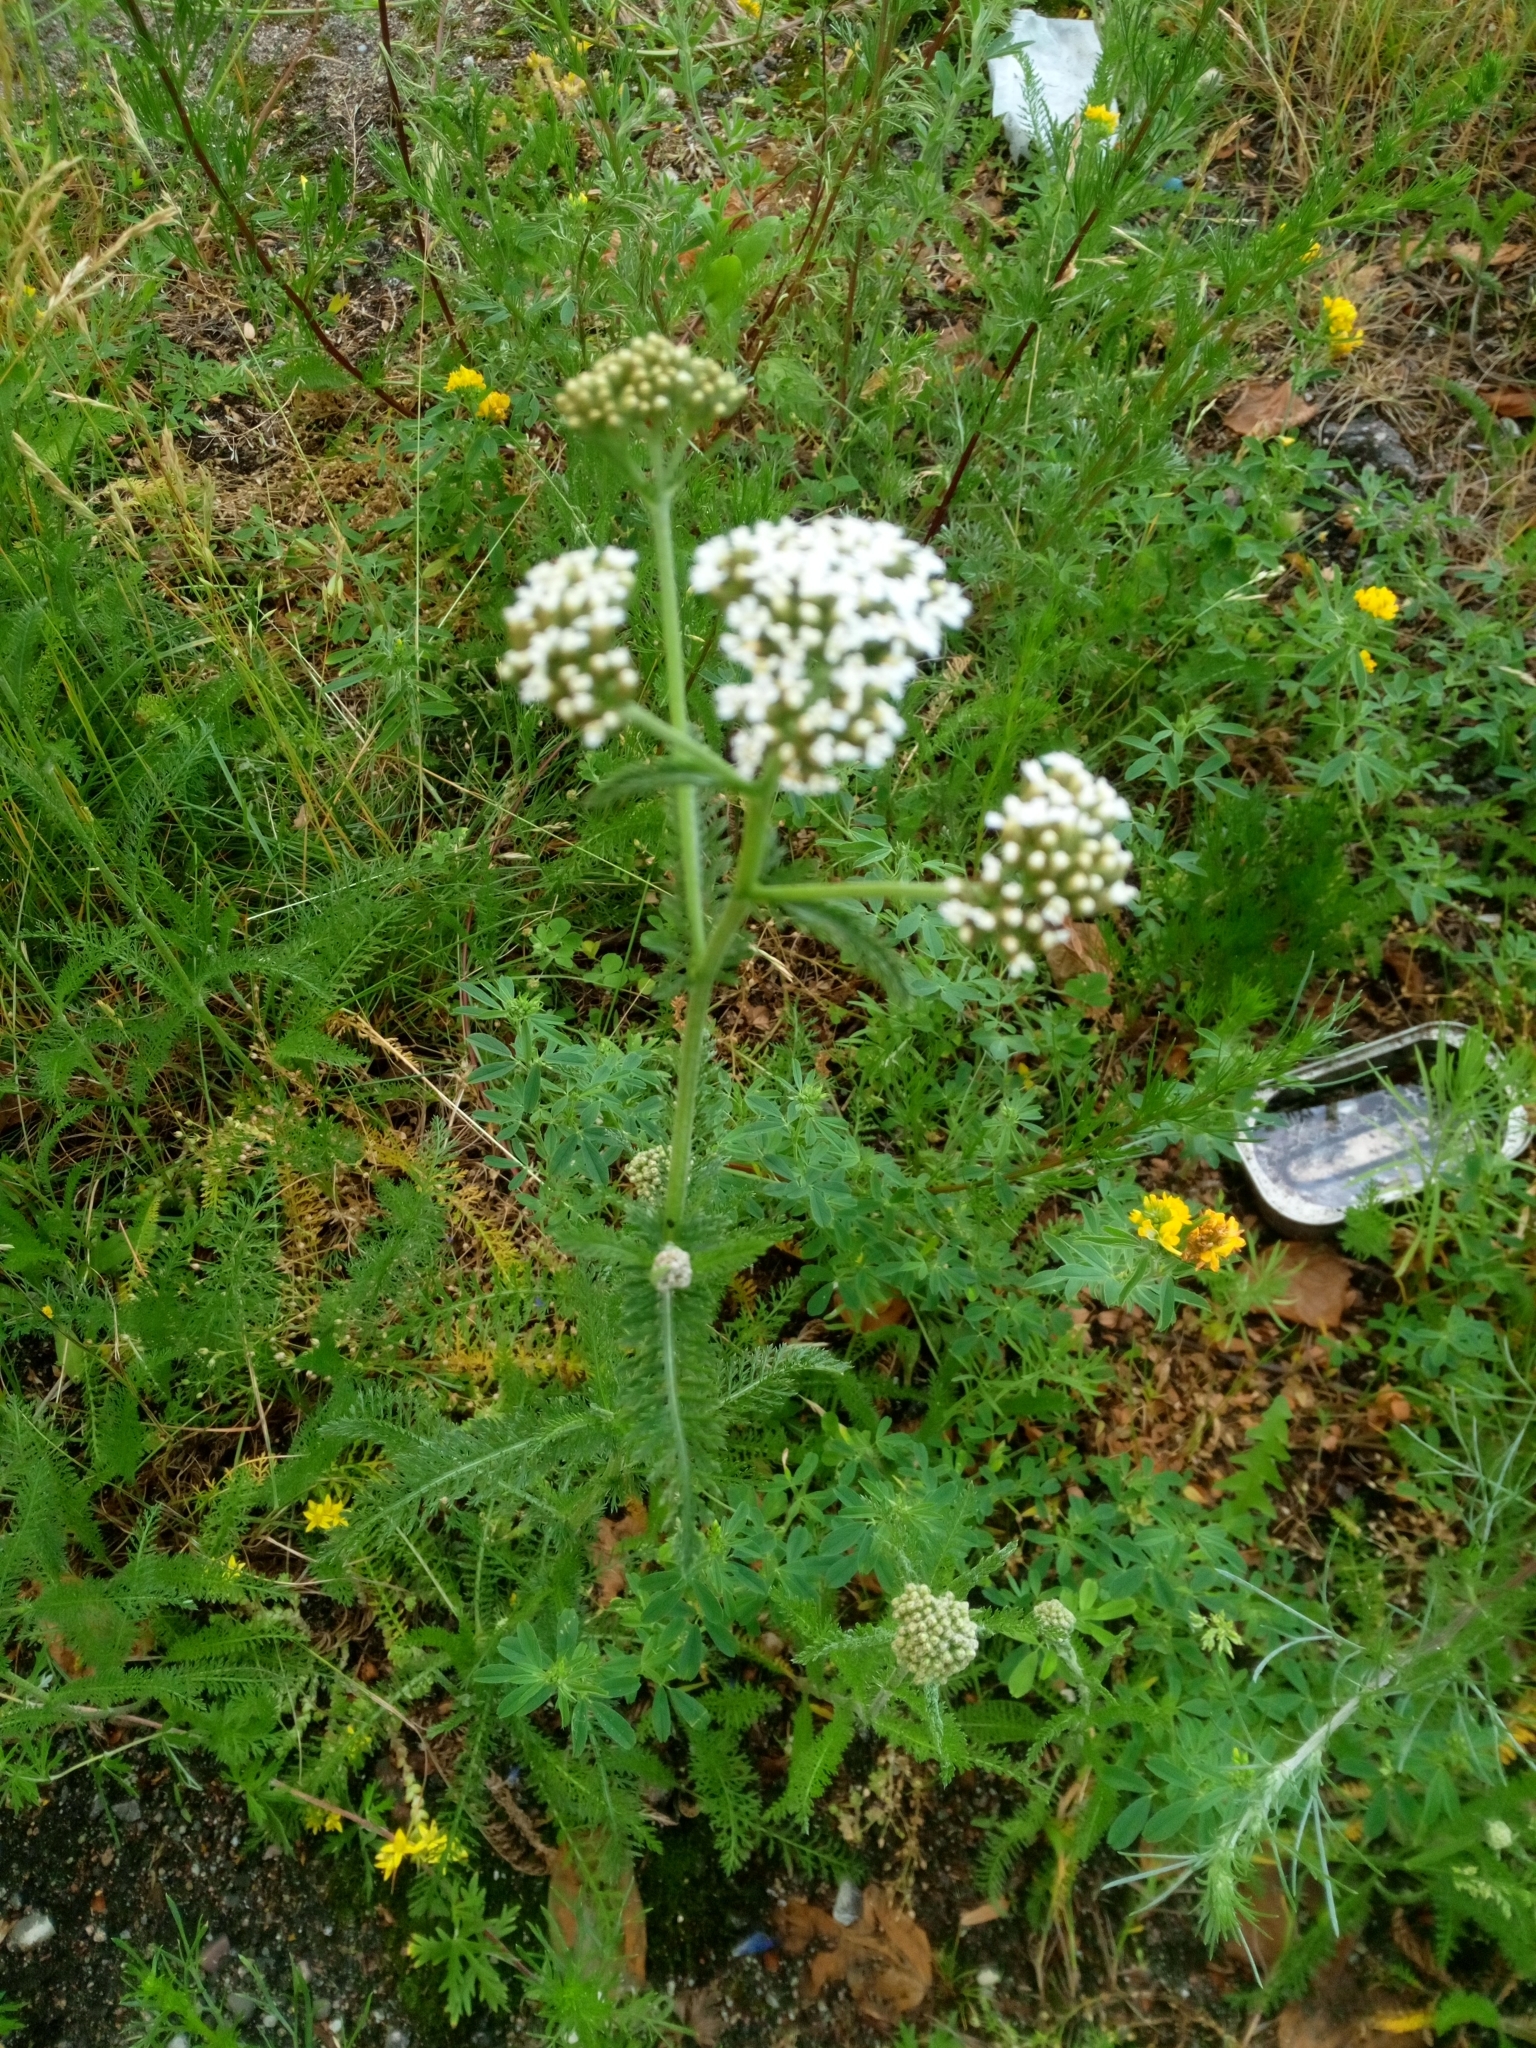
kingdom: Plantae
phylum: Tracheophyta
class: Magnoliopsida
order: Asterales
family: Asteraceae
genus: Achillea
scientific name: Achillea millefolium
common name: Yarrow
